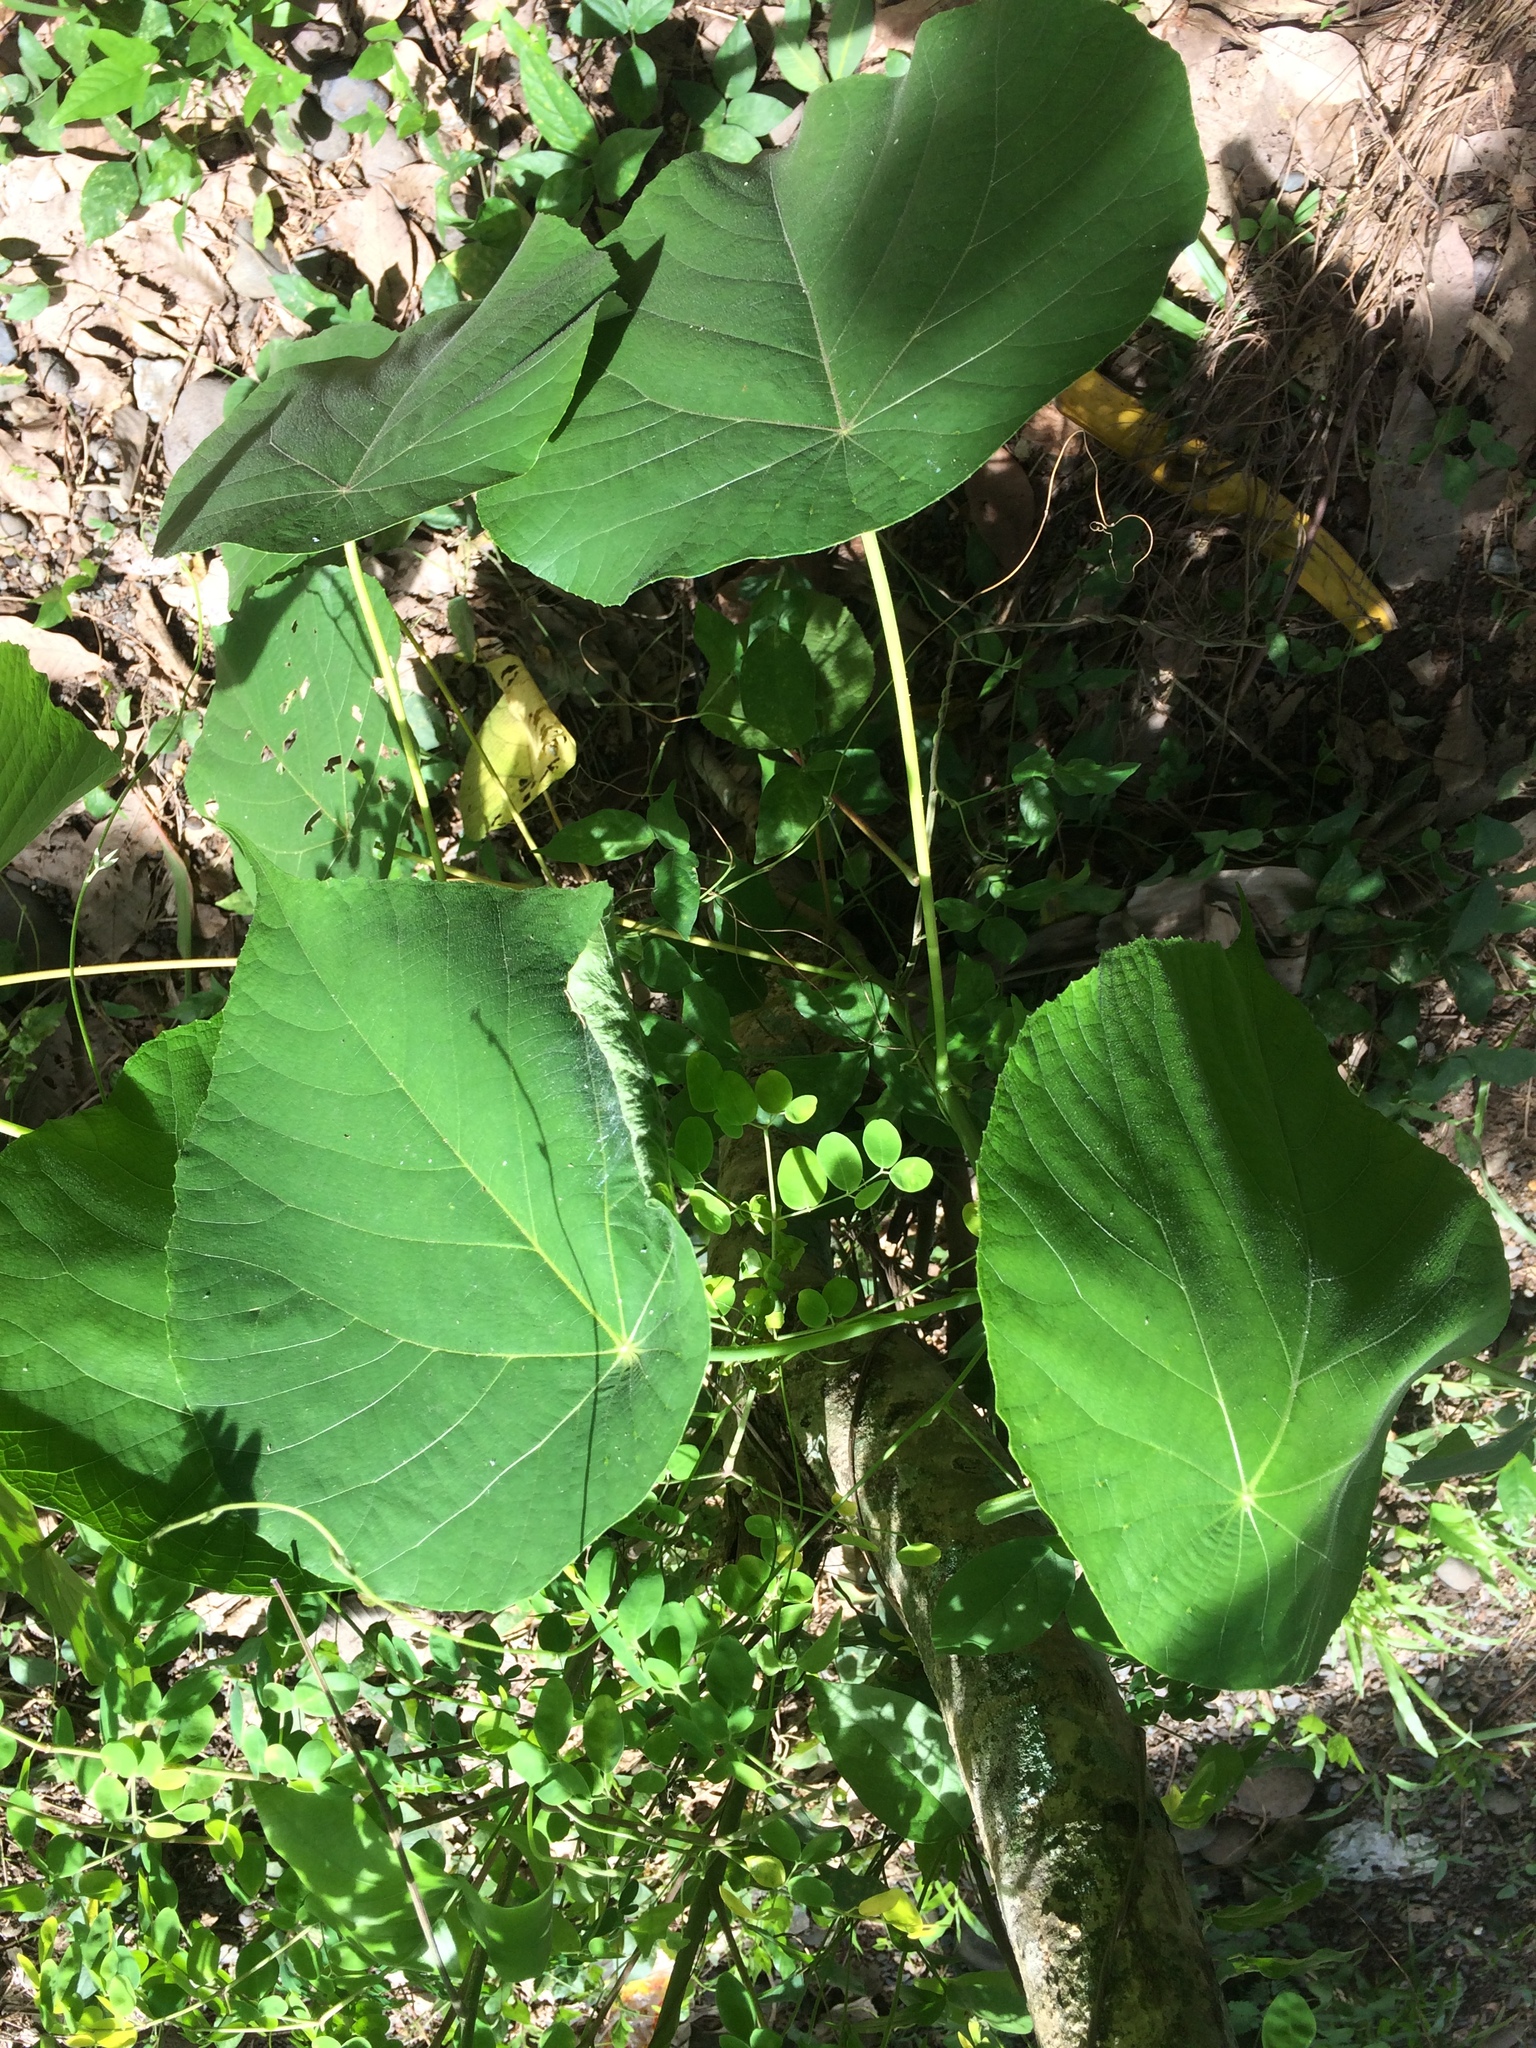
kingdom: Plantae
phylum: Tracheophyta
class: Magnoliopsida
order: Malpighiales
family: Euphorbiaceae
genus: Macaranga
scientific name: Macaranga tanarius
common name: Parasol leaf tree
